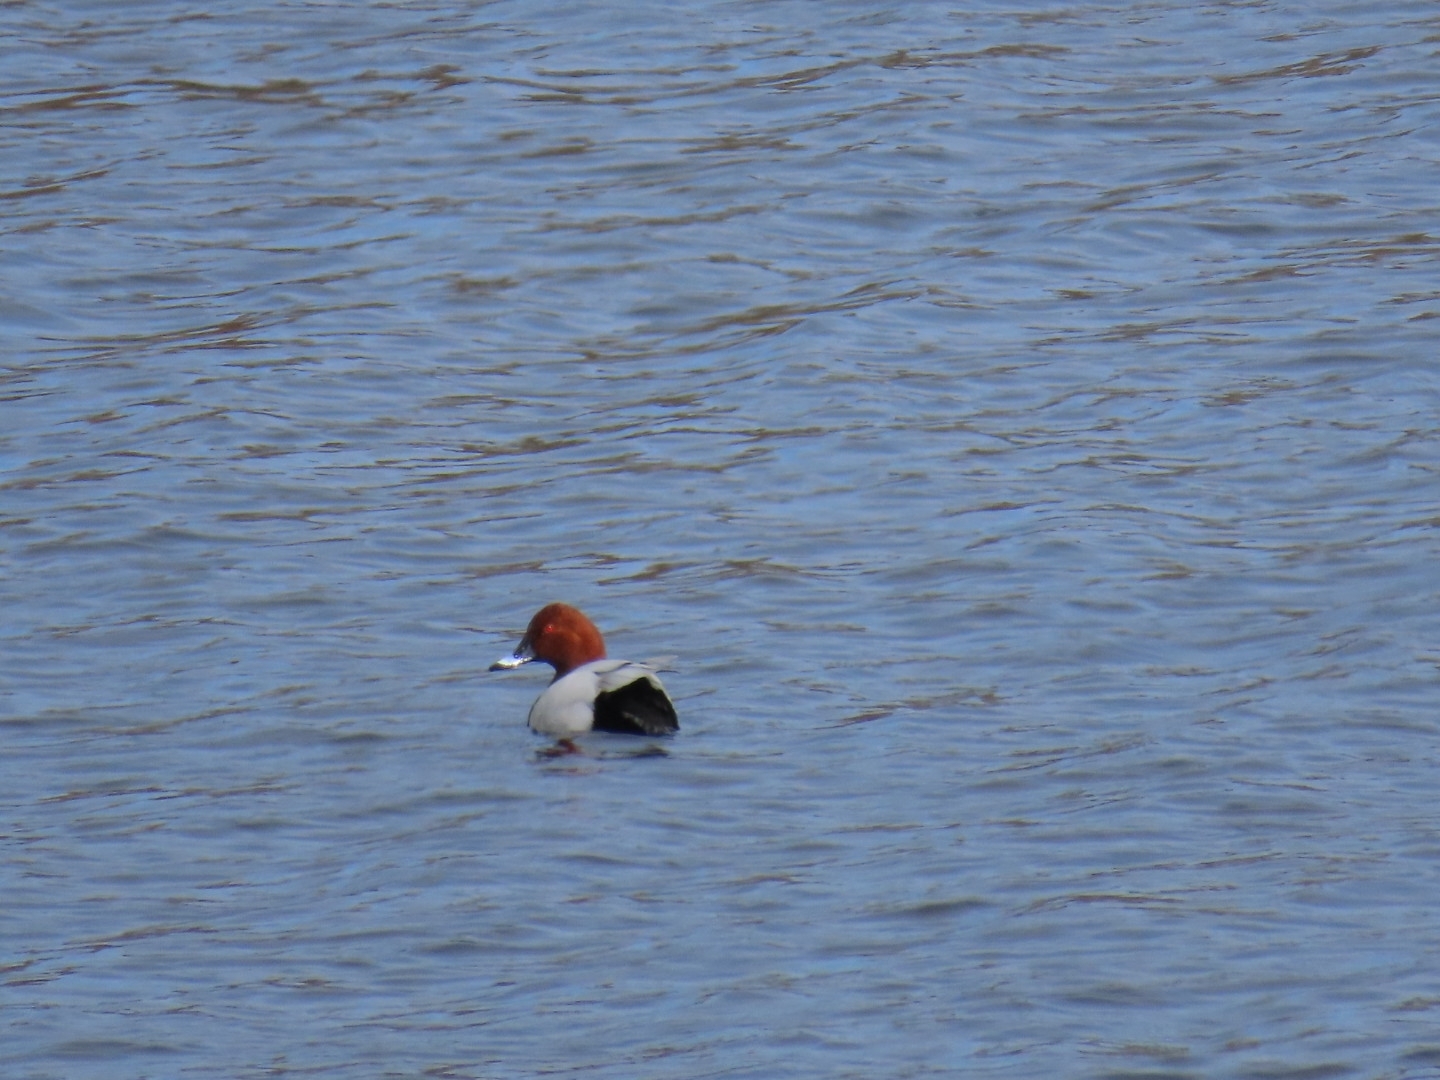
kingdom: Animalia
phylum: Chordata
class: Aves
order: Anseriformes
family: Anatidae
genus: Aythya
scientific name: Aythya ferina
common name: Common pochard
